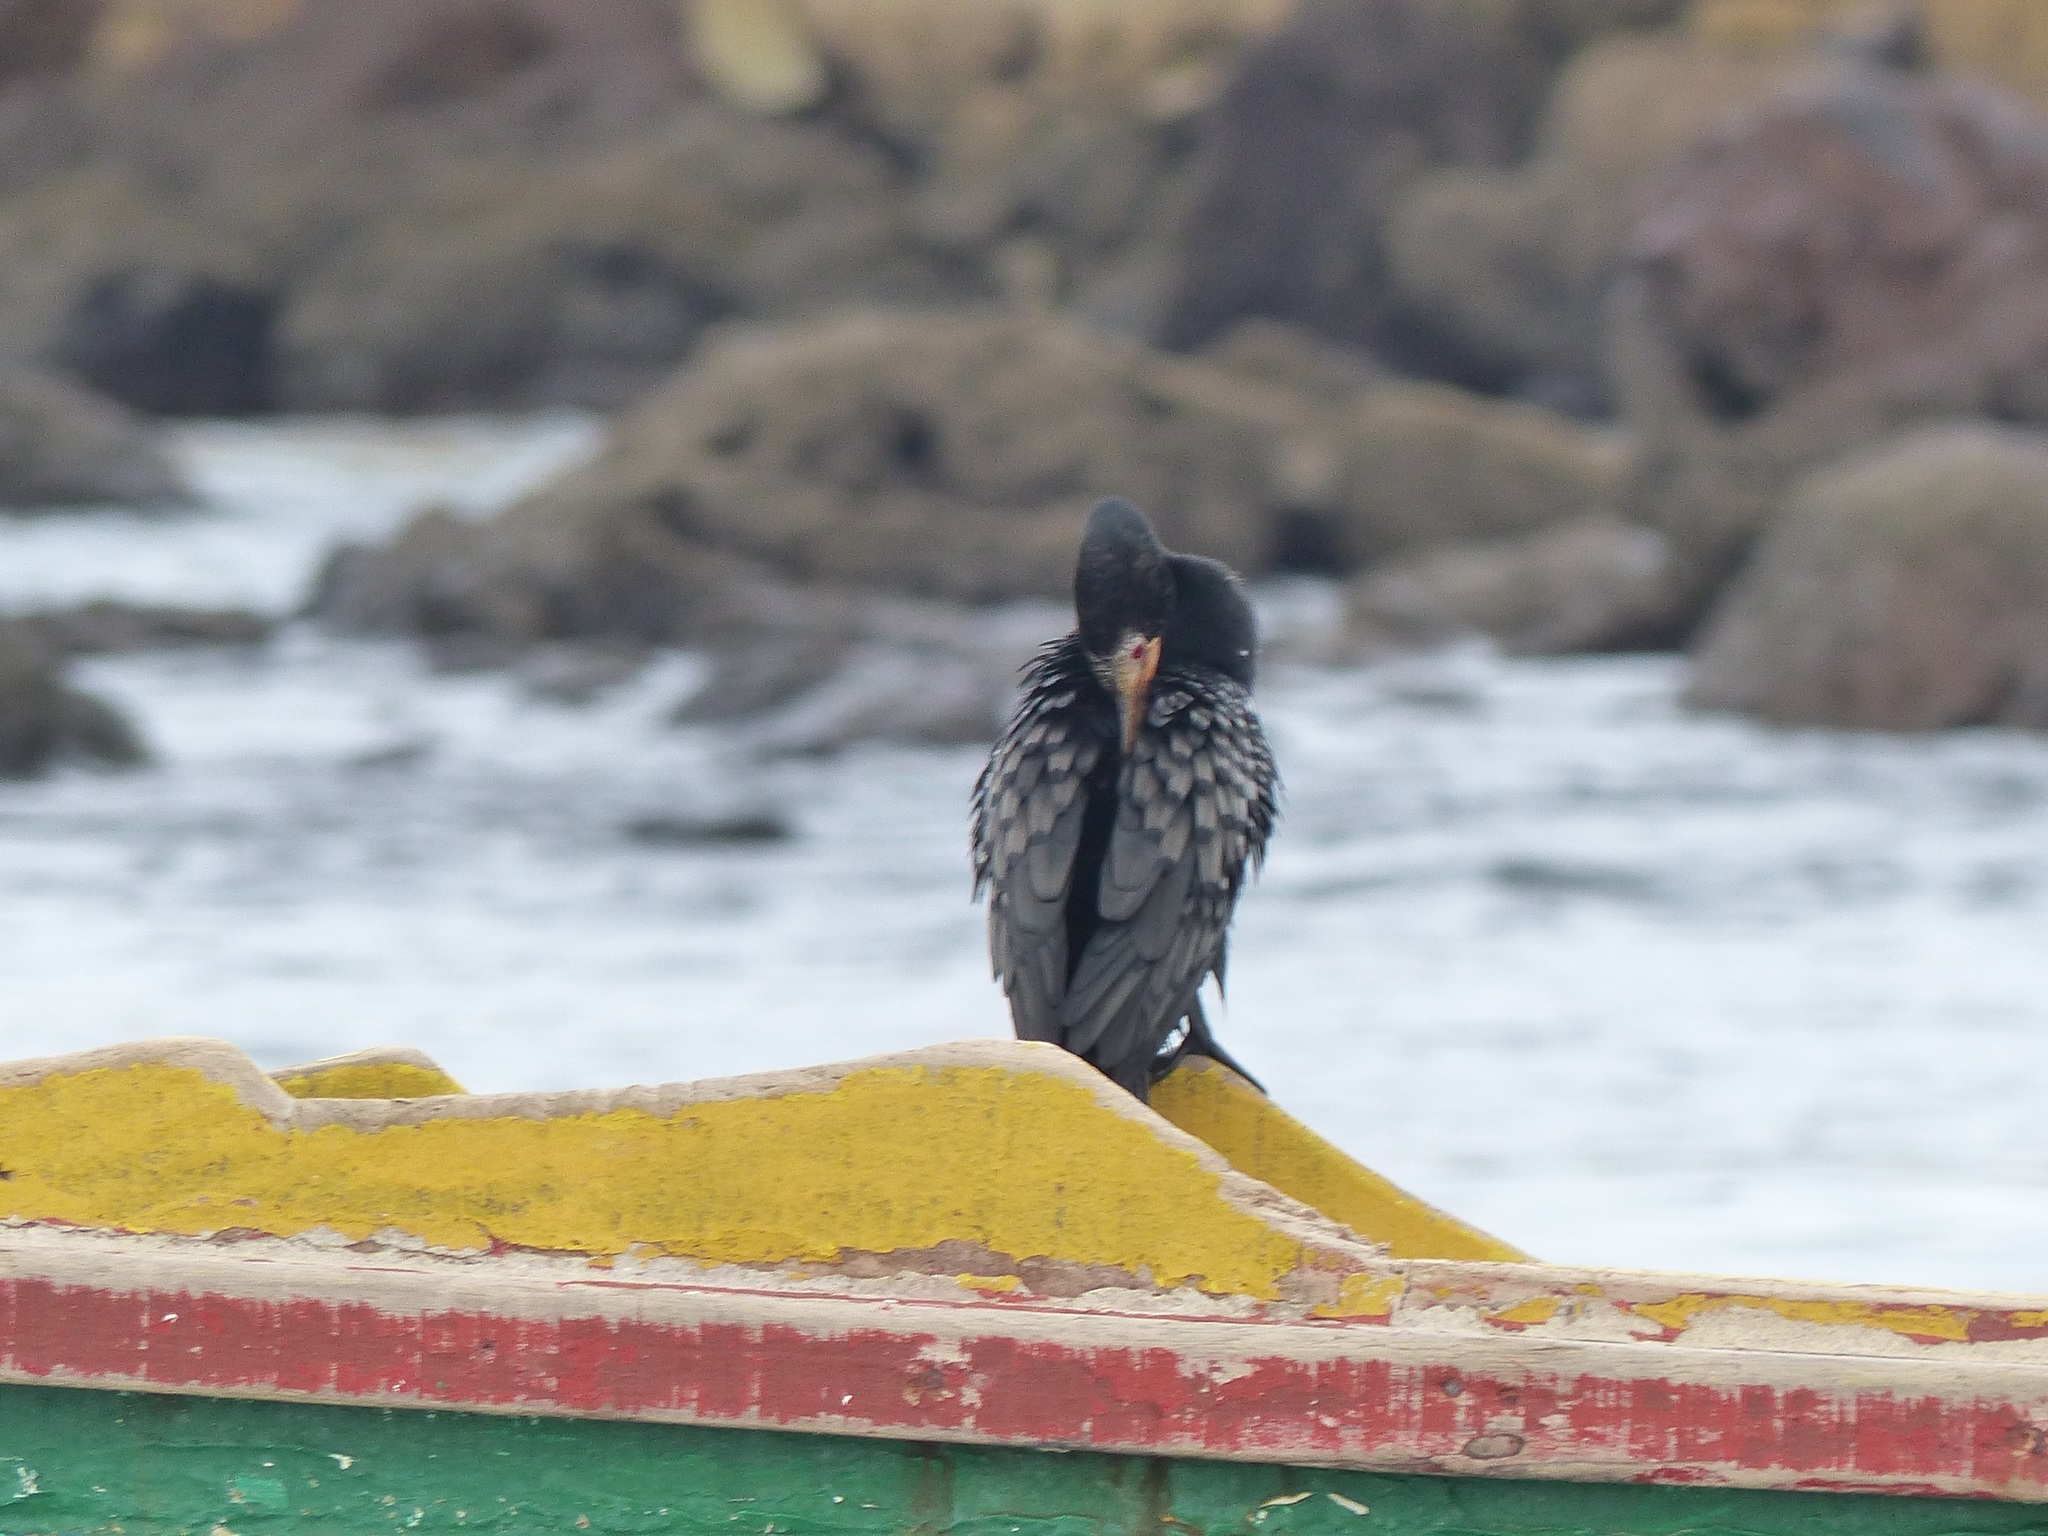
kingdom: Animalia
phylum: Chordata
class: Aves
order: Suliformes
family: Phalacrocoracidae
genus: Microcarbo
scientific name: Microcarbo africanus
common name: Long-tailed cormorant
